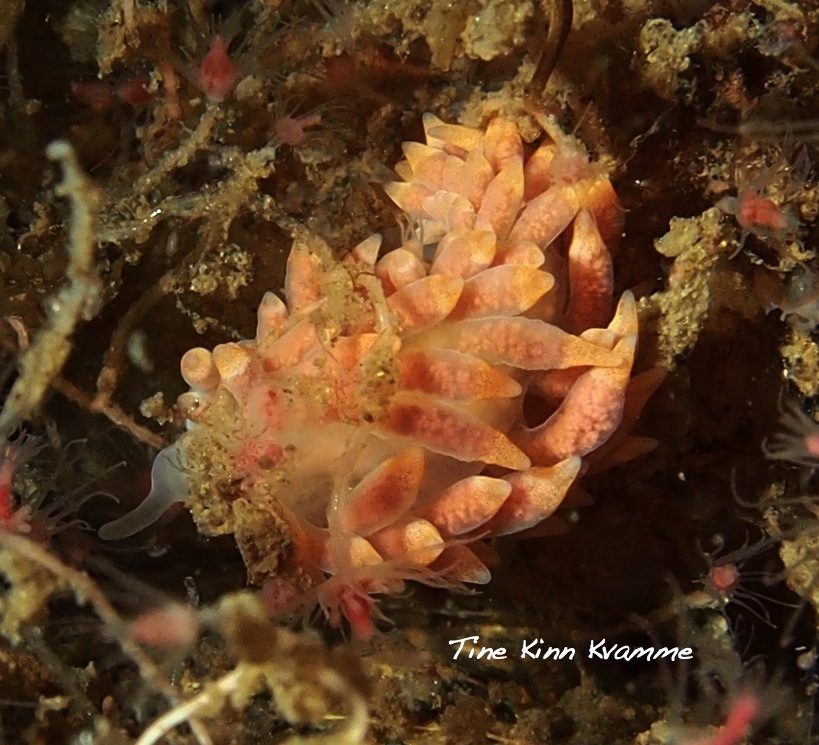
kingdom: Animalia
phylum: Mollusca
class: Gastropoda
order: Nudibranchia
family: Trinchesiidae
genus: Catriona
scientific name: Catriona aurantia
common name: Corange-tip cuthona
